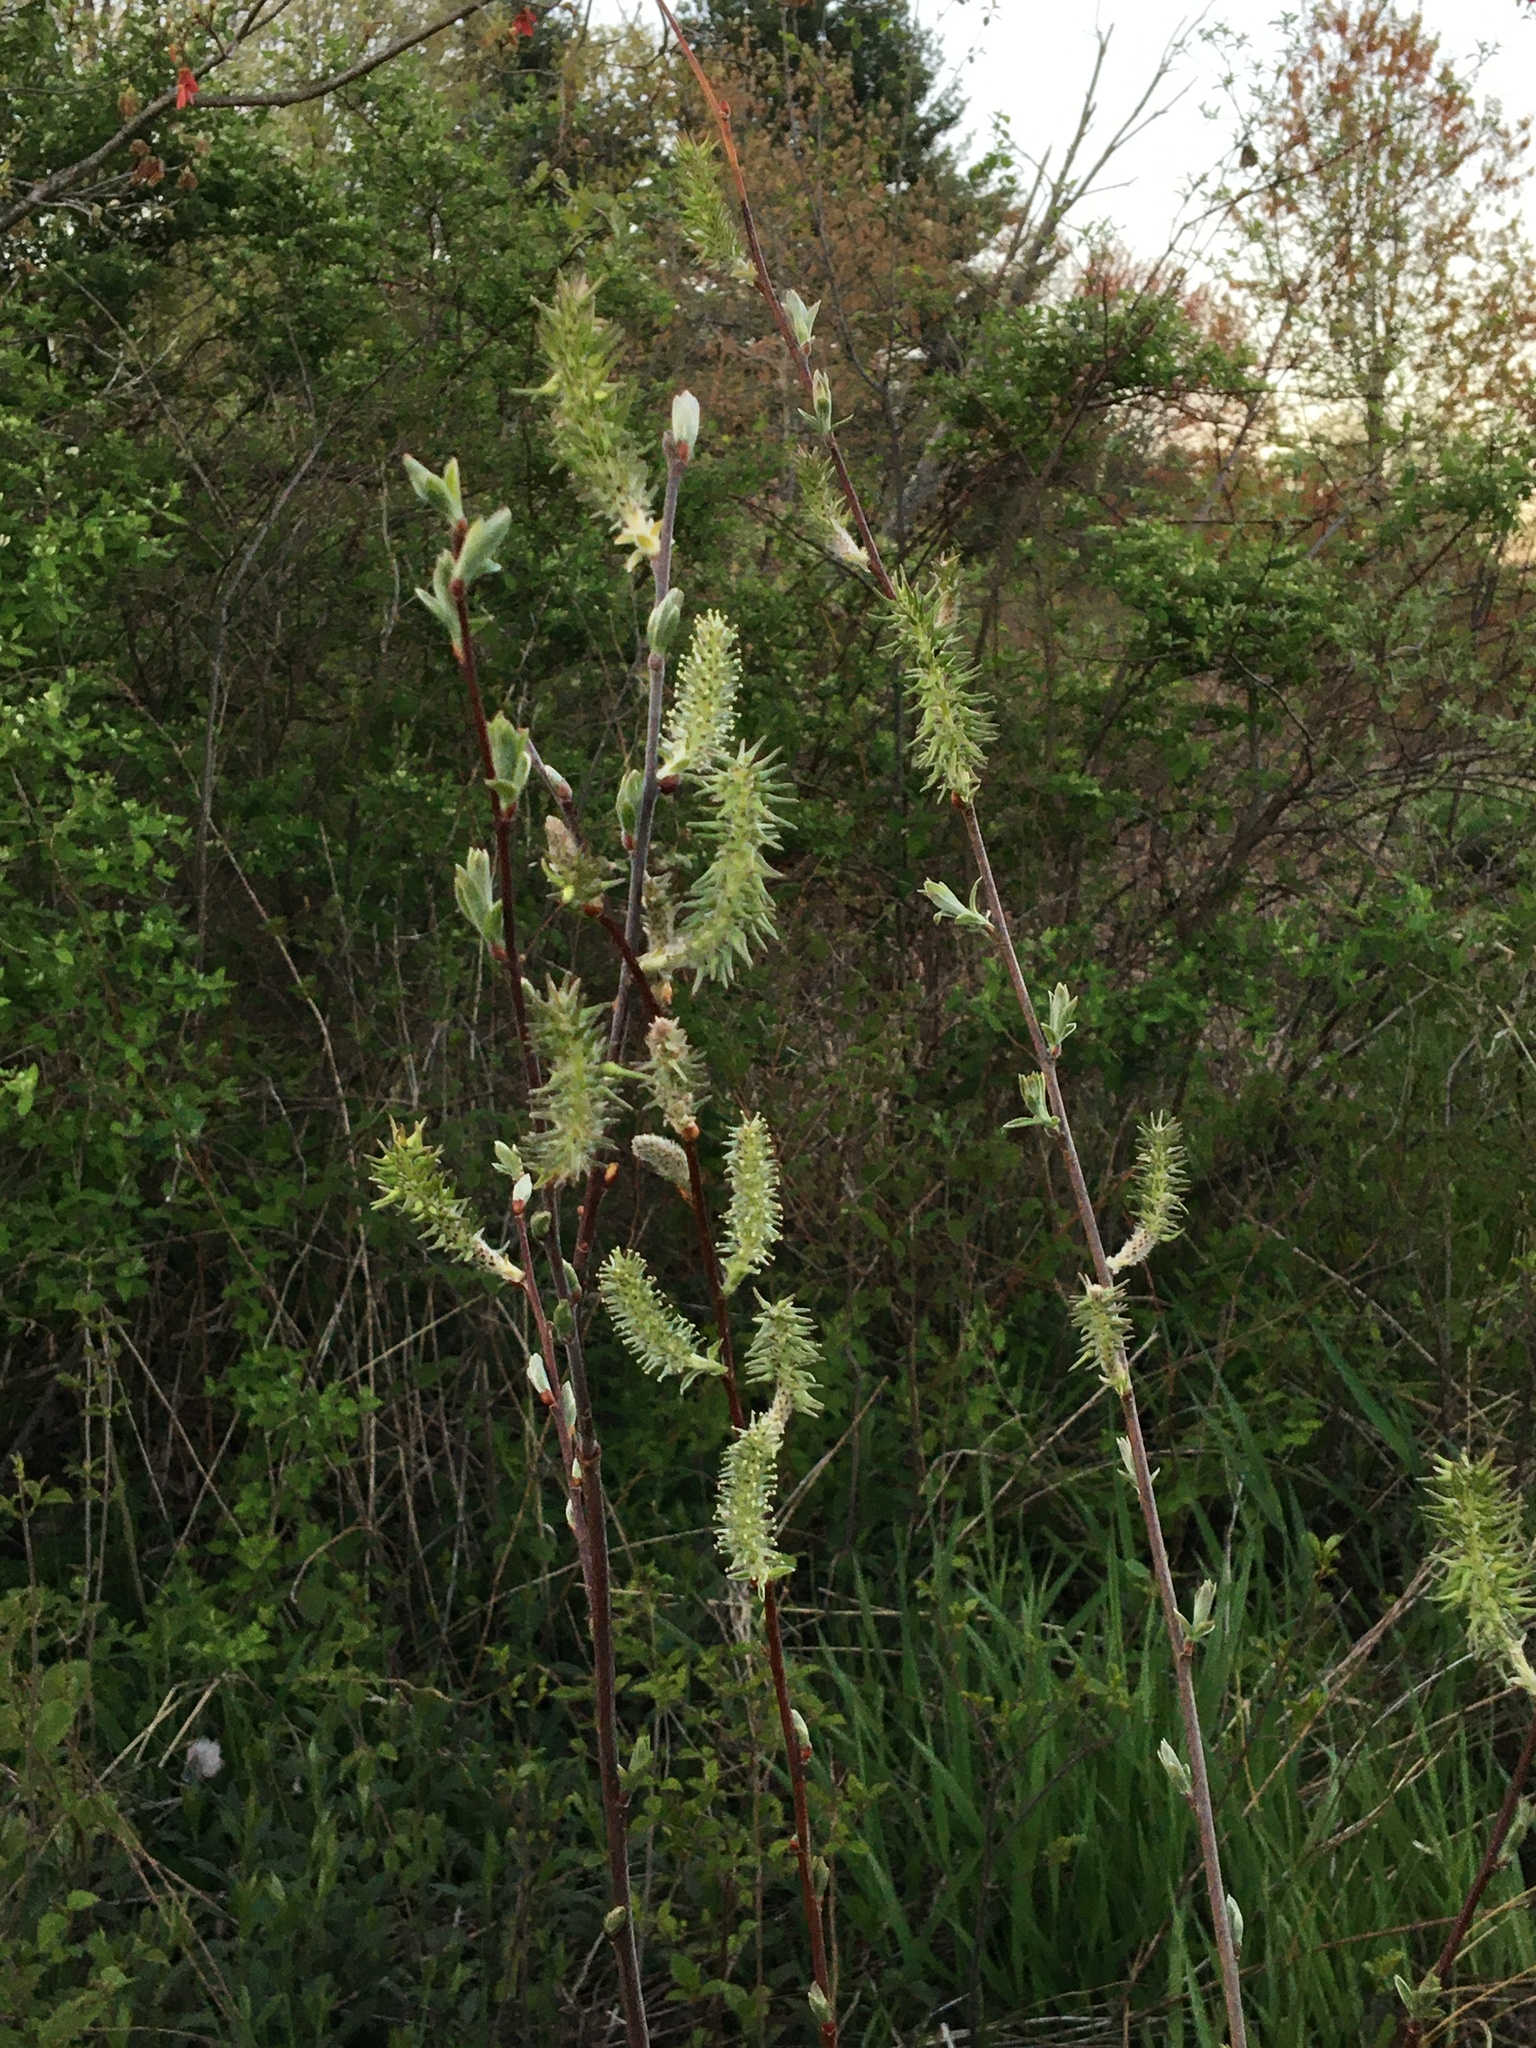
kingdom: Plantae
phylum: Tracheophyta
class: Magnoliopsida
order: Malpighiales
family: Salicaceae
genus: Salix
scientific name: Salix atrocinerea
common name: Rusty willow
